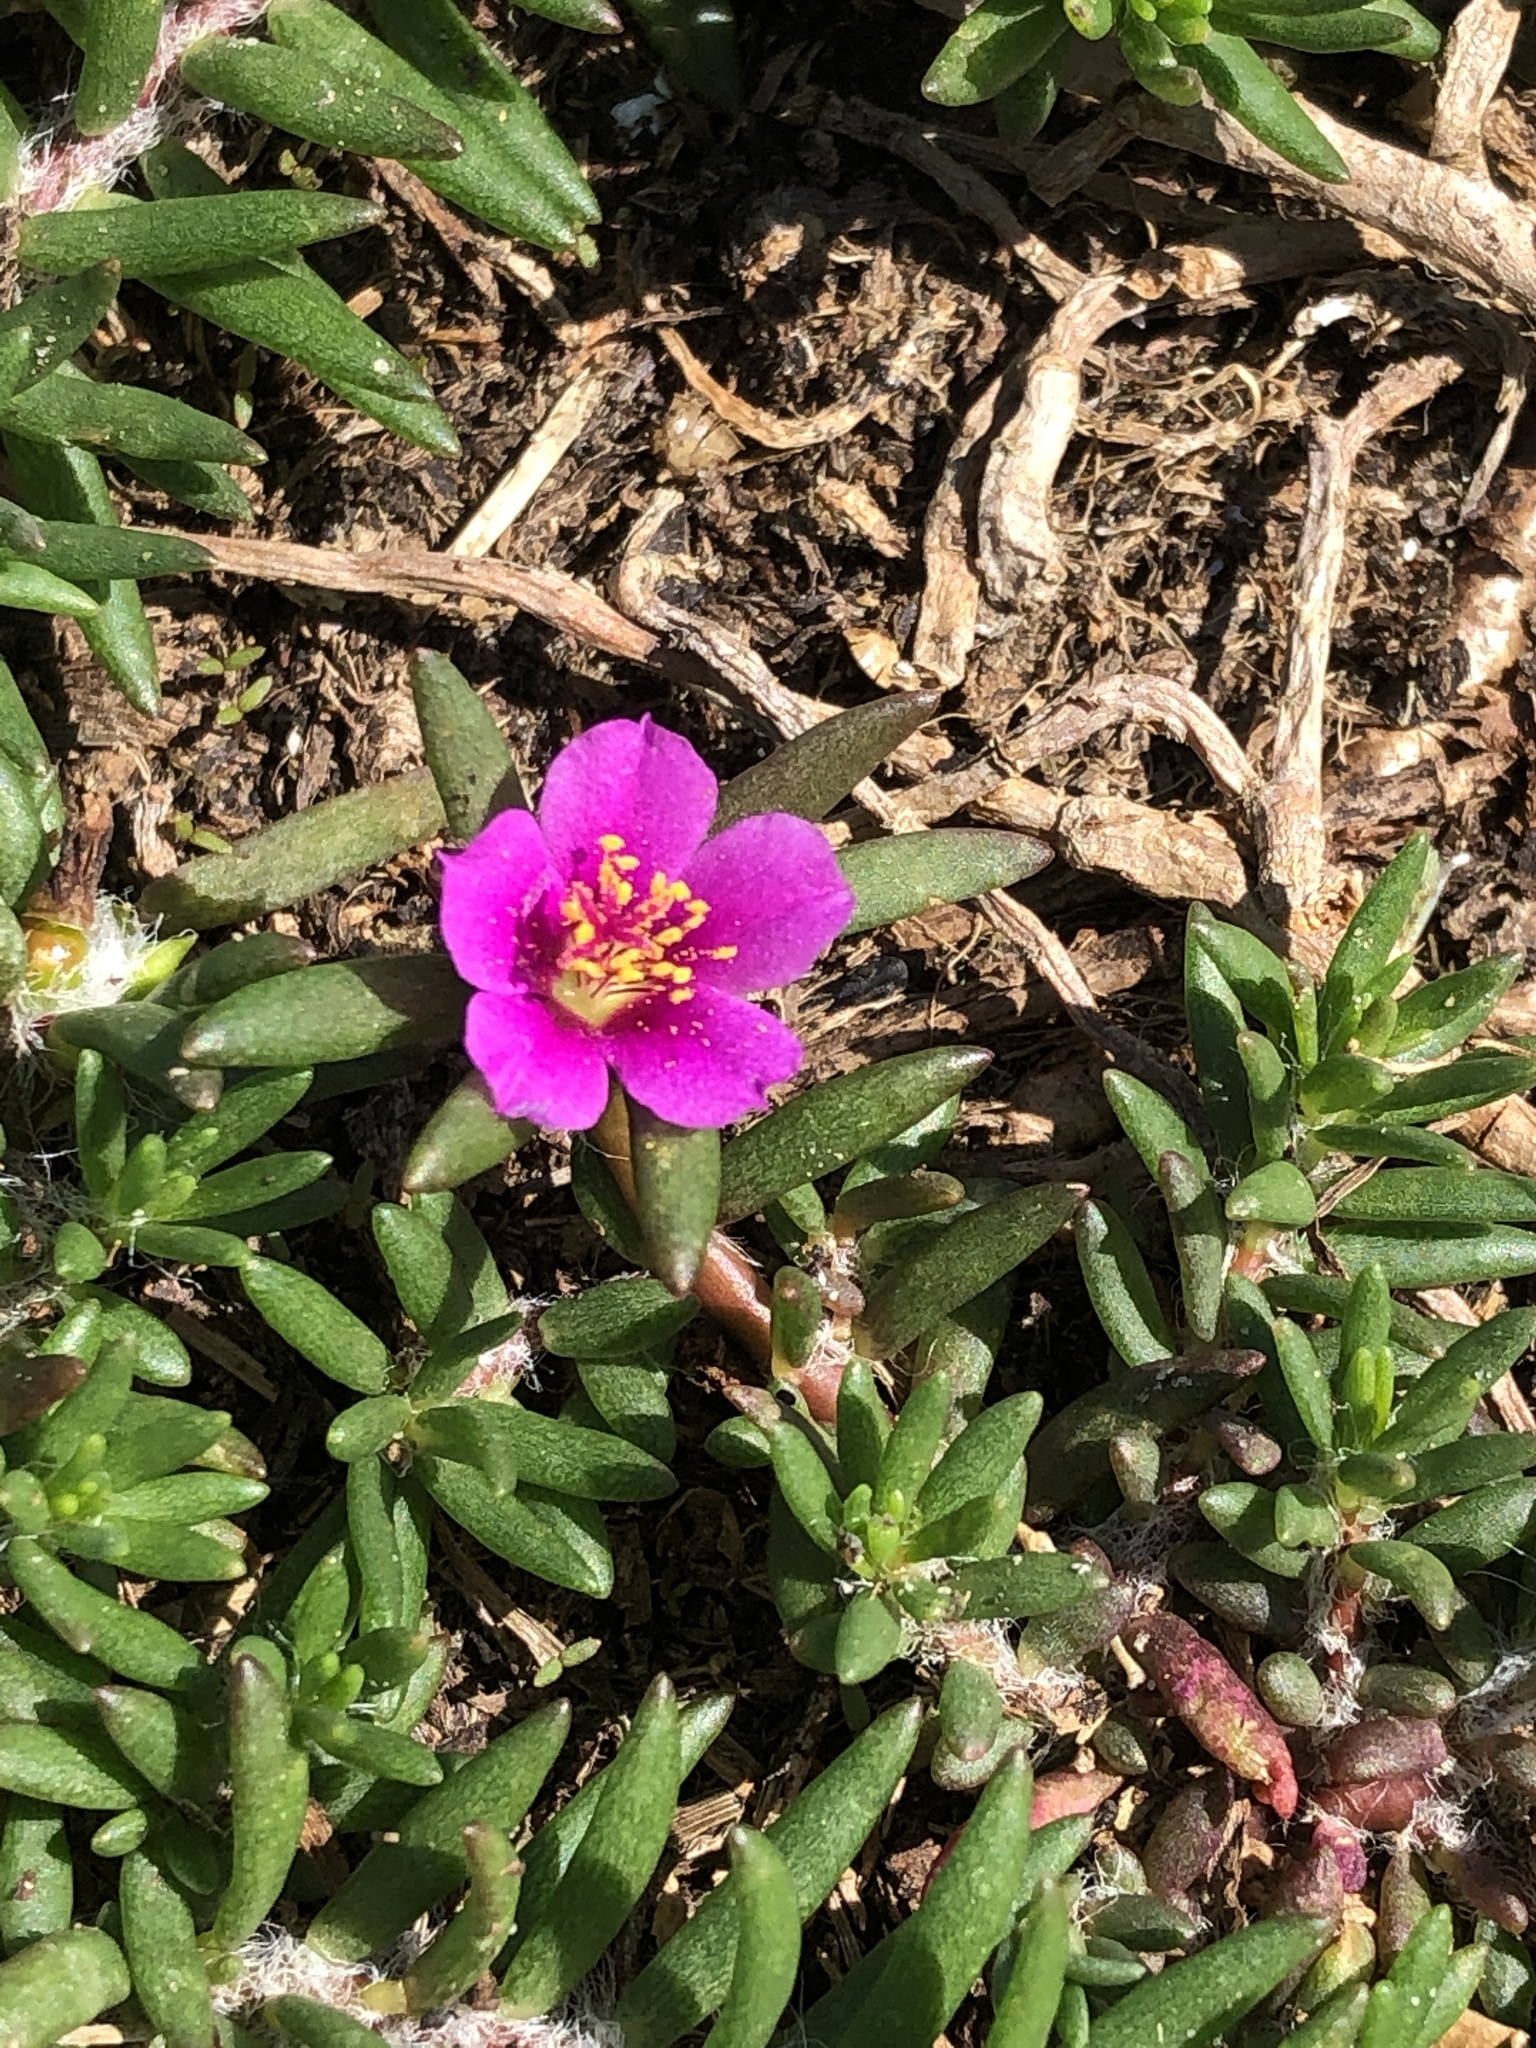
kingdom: Plantae
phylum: Tracheophyta
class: Magnoliopsida
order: Caryophyllales
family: Portulacaceae
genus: Portulaca
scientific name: Portulaca pilosa
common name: Kiss me quick
